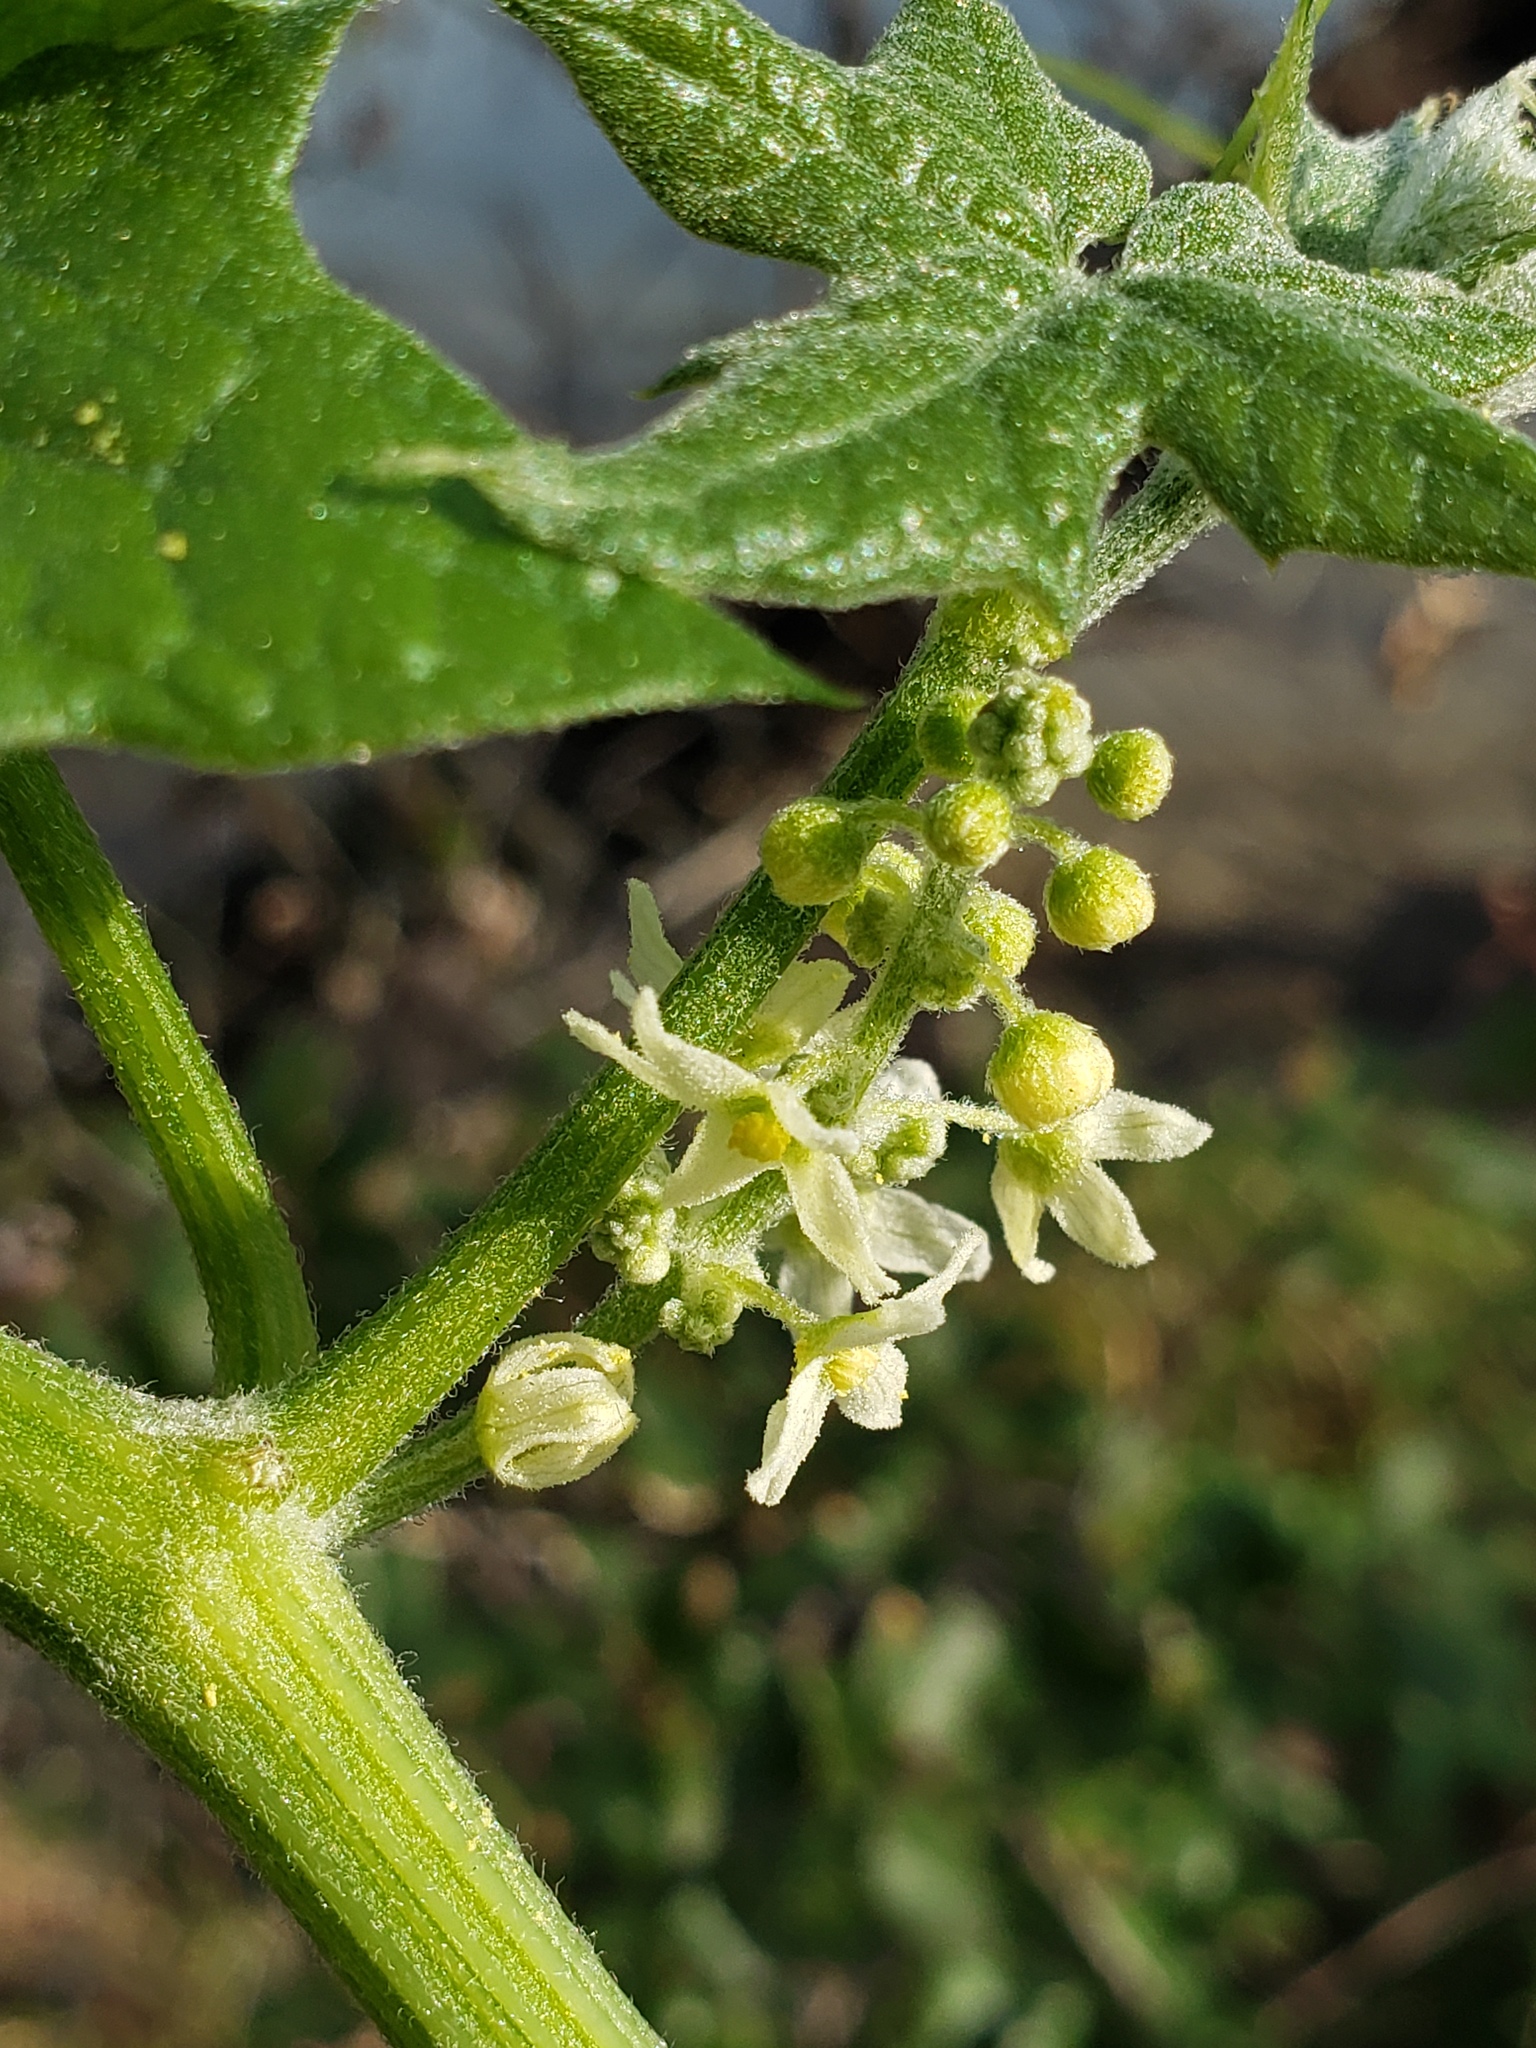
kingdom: Plantae
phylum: Tracheophyta
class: Magnoliopsida
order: Cucurbitales
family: Cucurbitaceae
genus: Marah
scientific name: Marah fabacea
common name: California manroot
